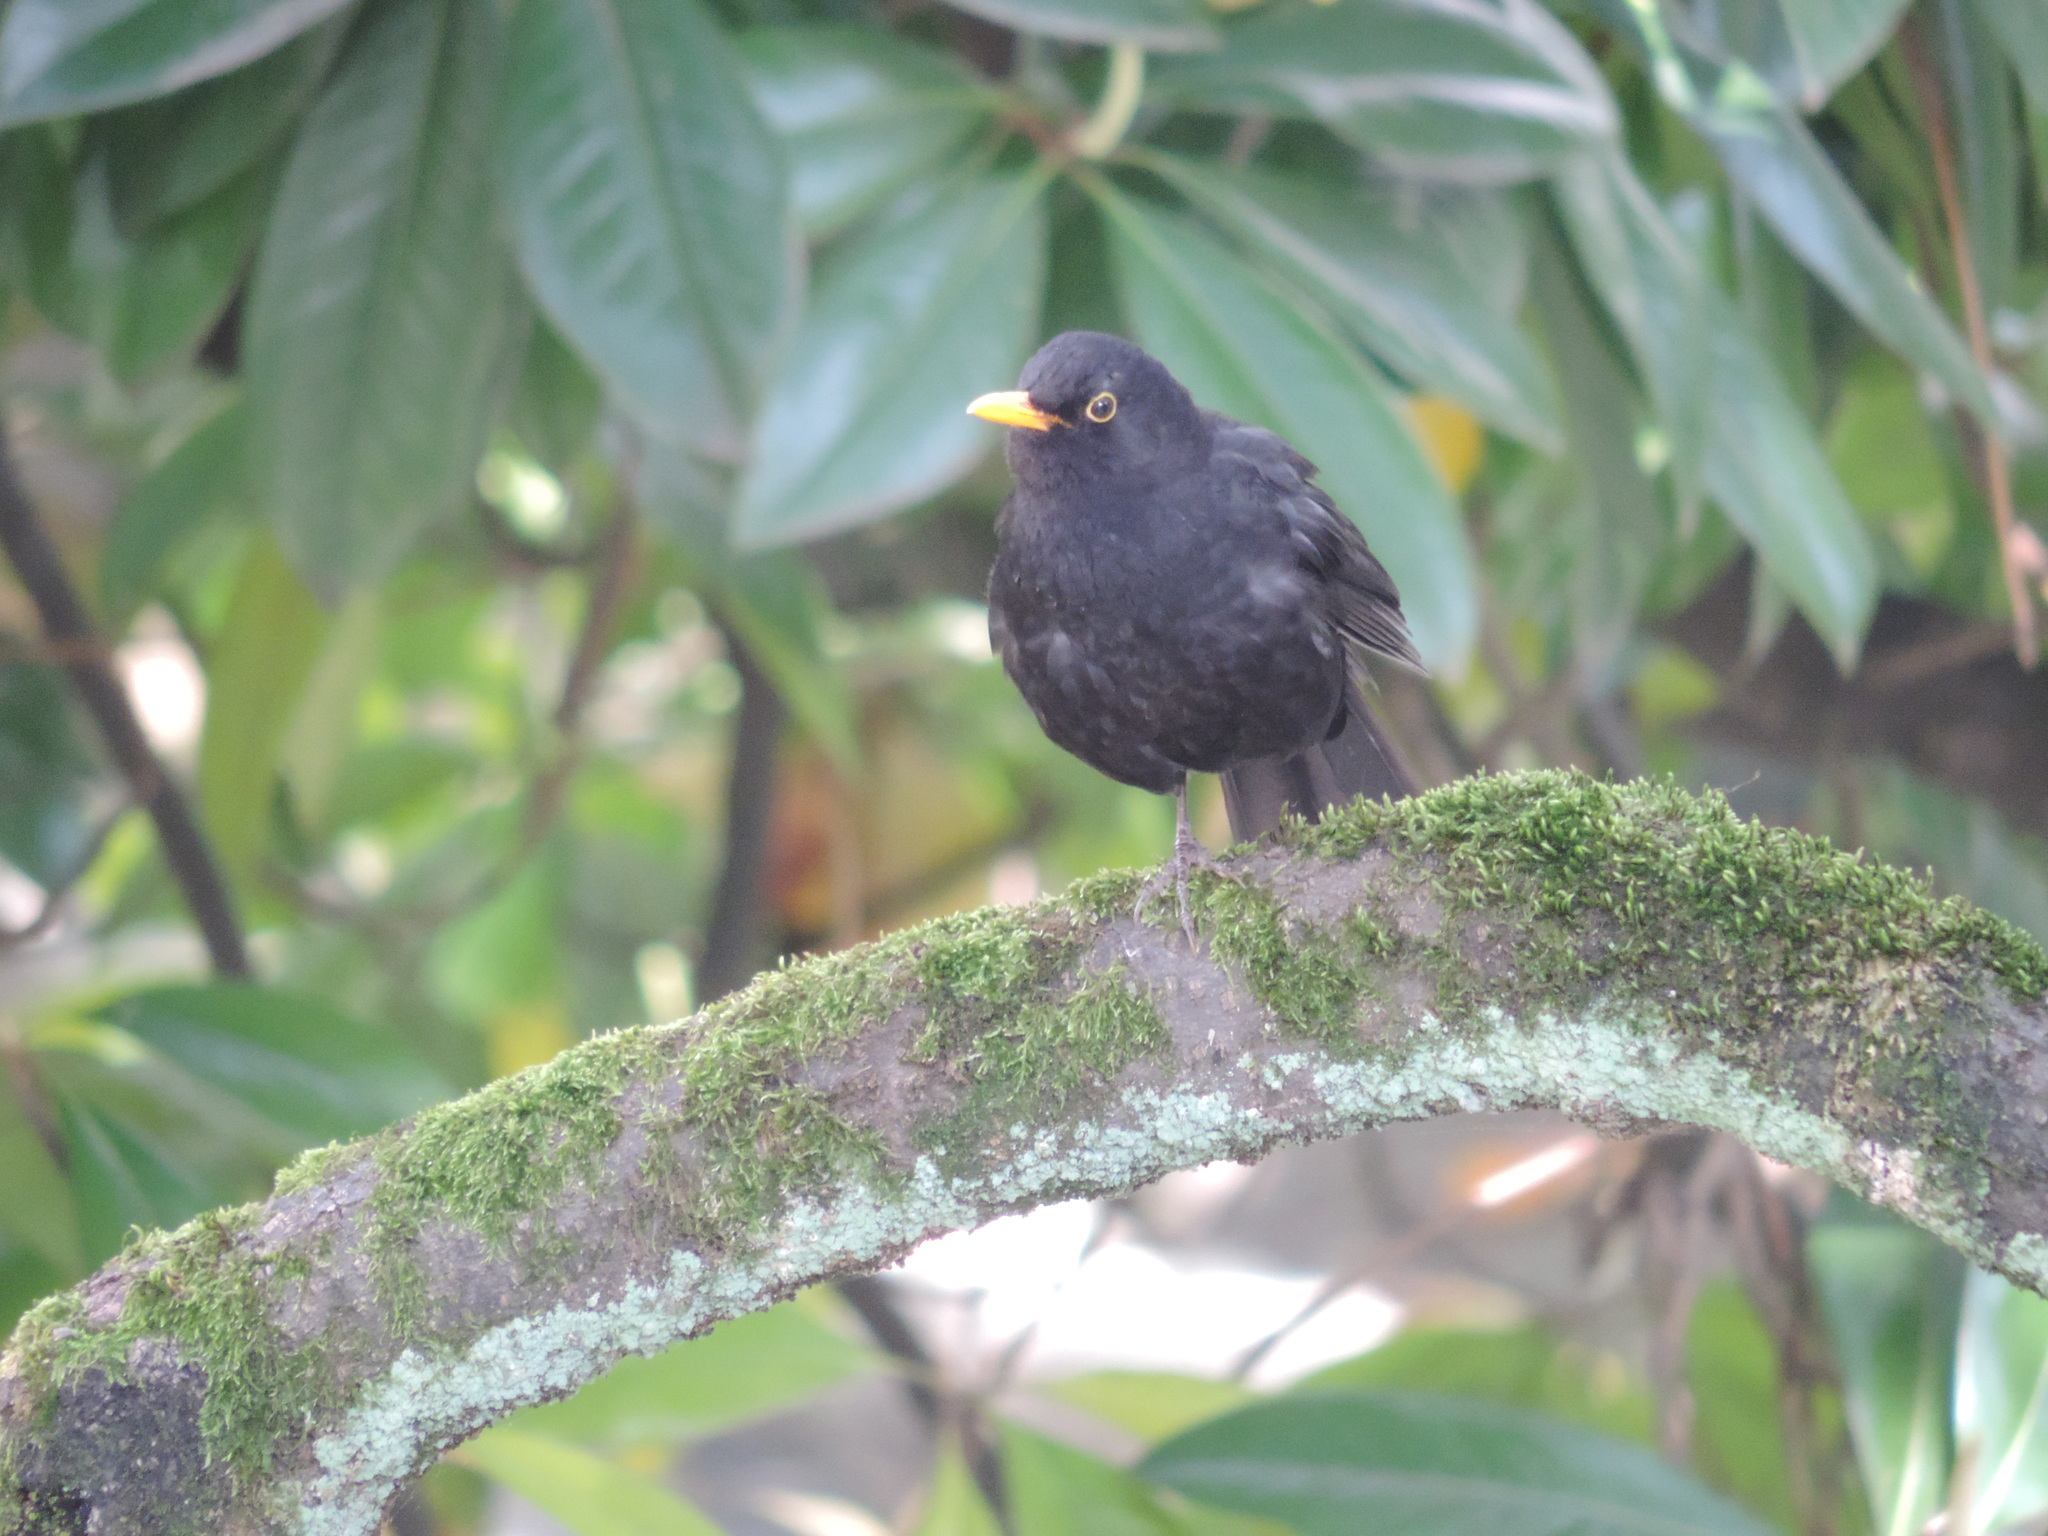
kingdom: Animalia
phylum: Chordata
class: Aves
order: Passeriformes
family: Turdidae
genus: Turdus
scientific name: Turdus merula
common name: Common blackbird
